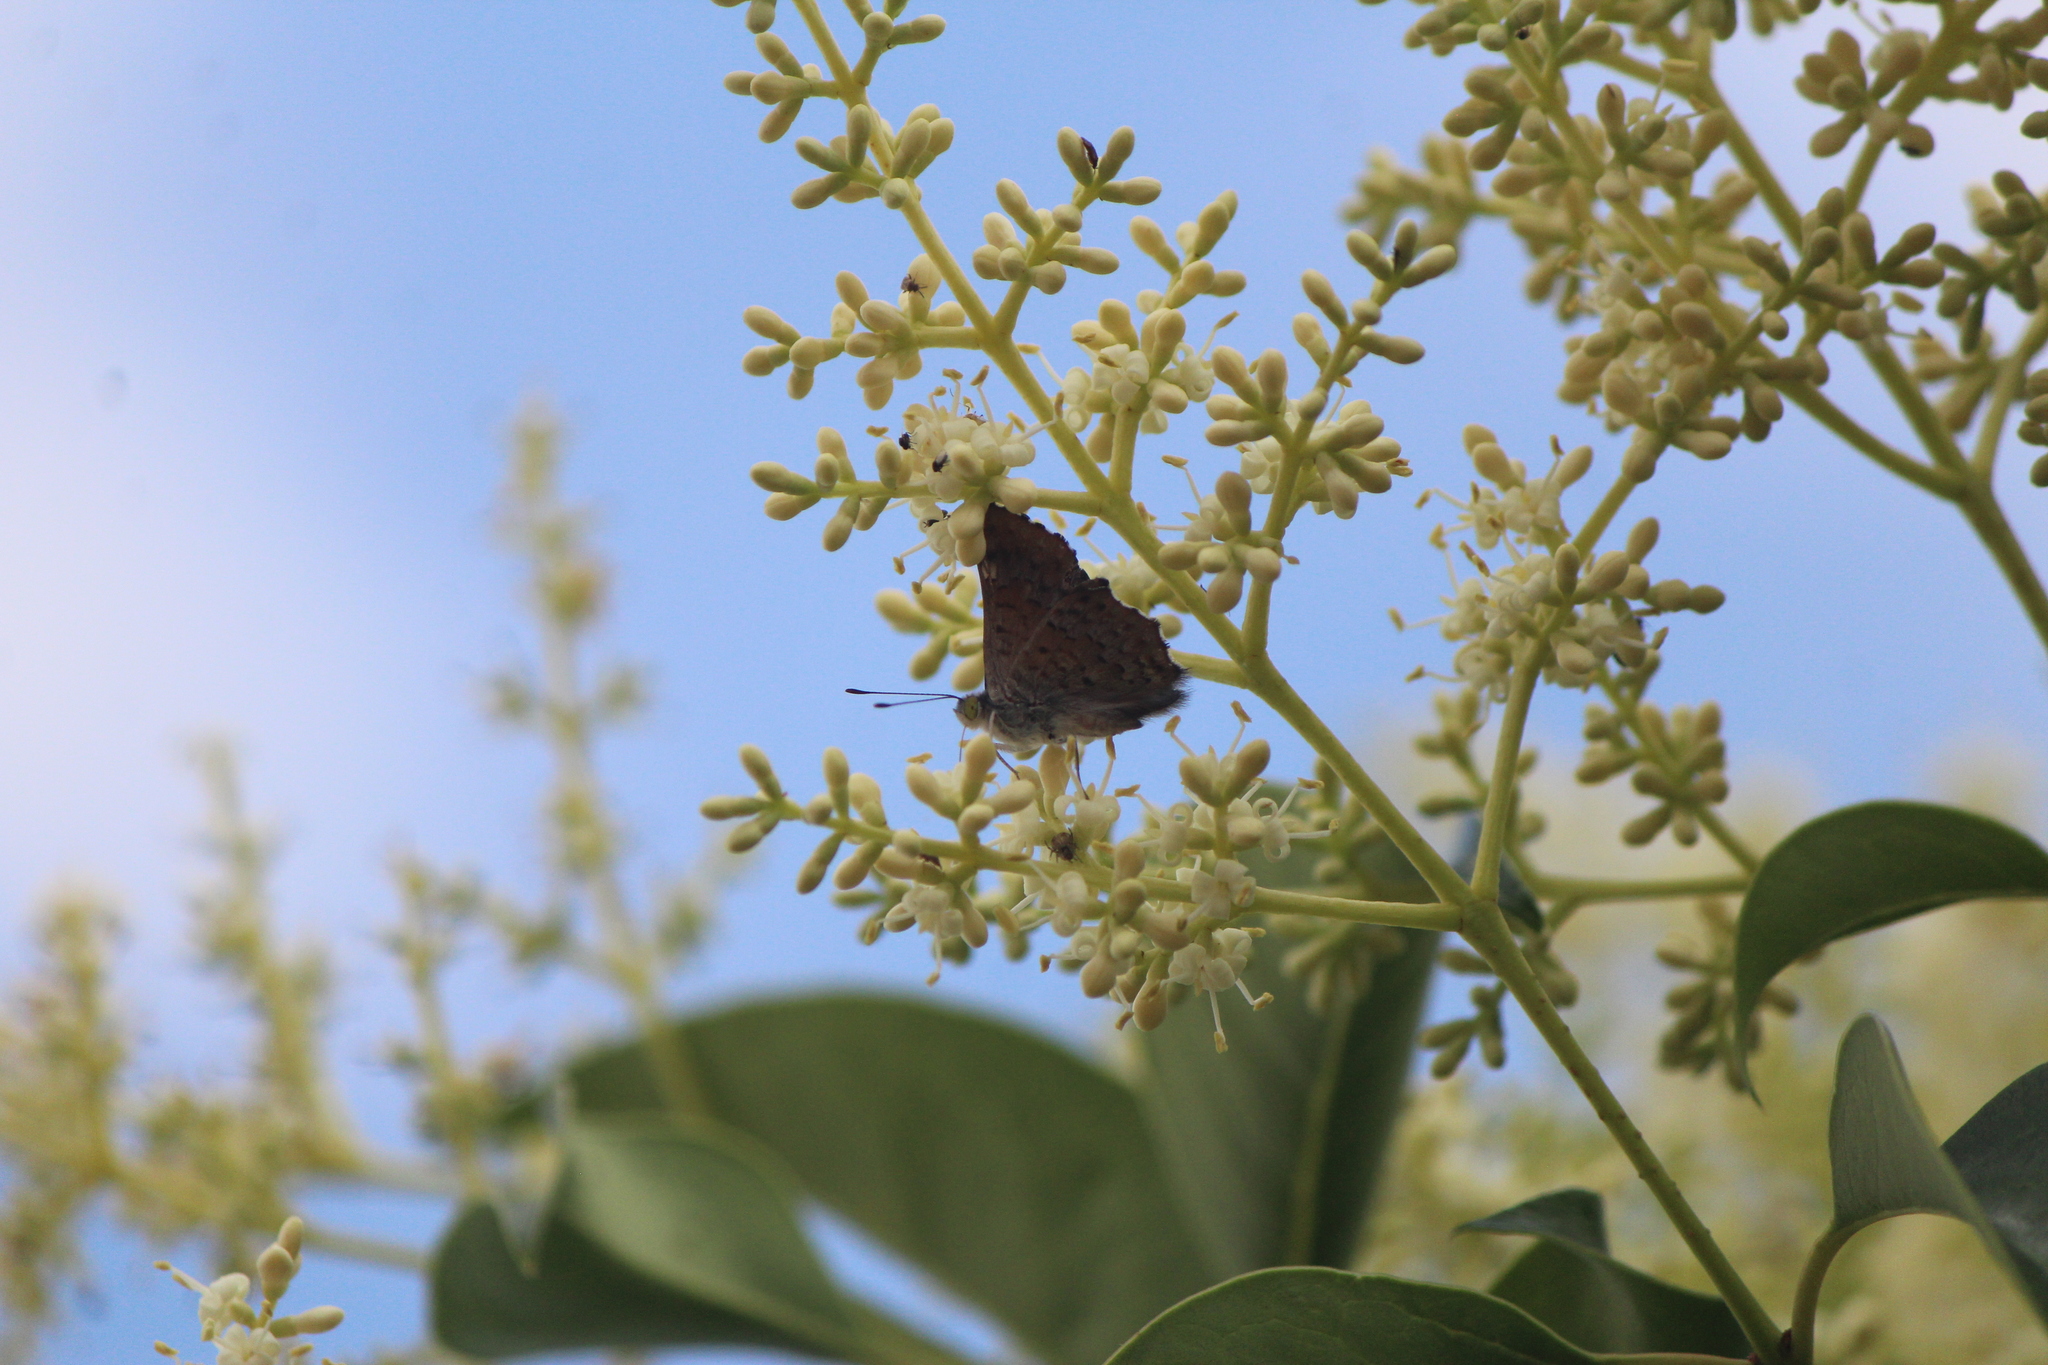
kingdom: Animalia
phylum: Arthropoda
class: Insecta
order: Lepidoptera
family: Riodinidae
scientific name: Riodinidae
